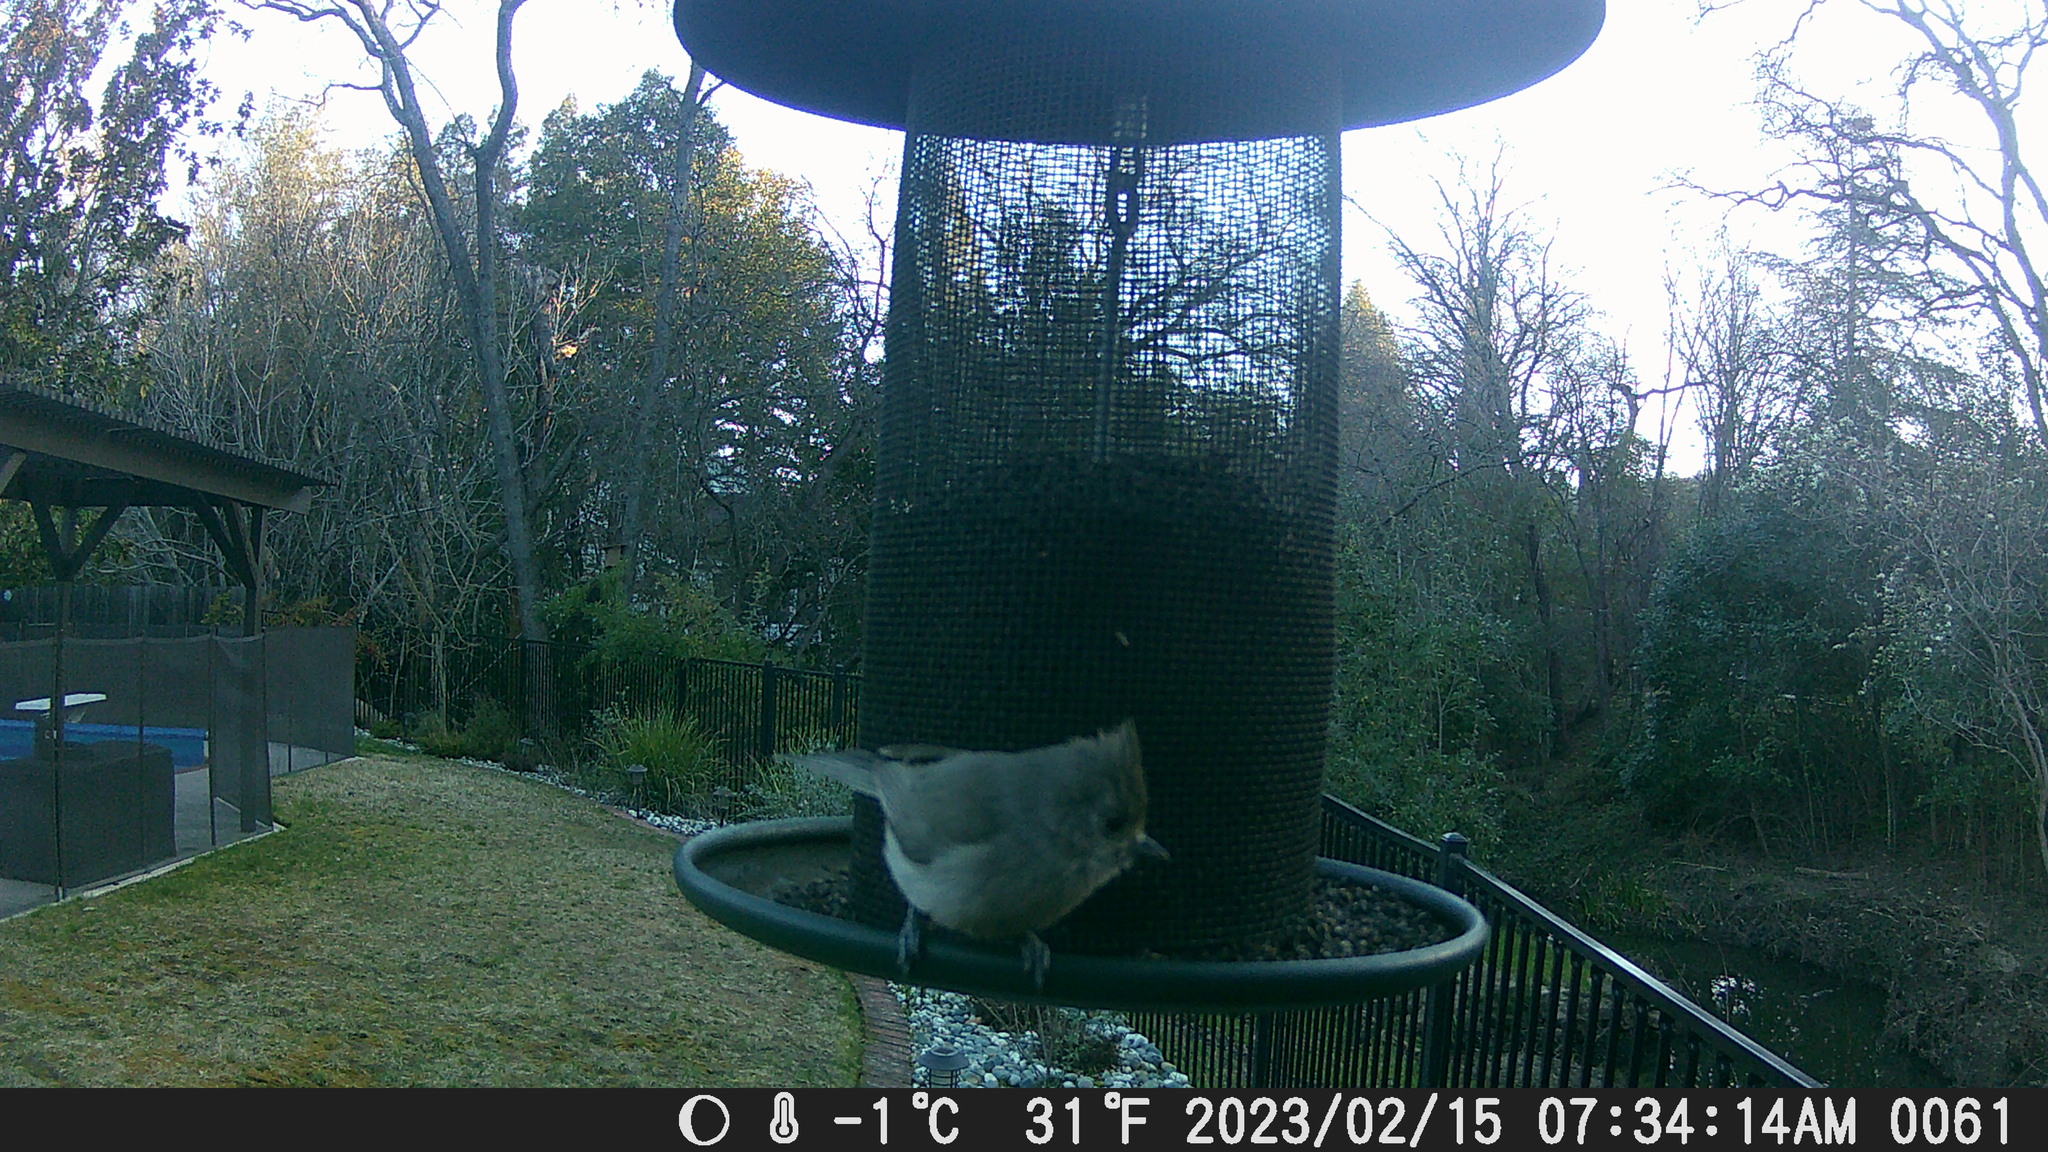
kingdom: Animalia
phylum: Chordata
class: Aves
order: Passeriformes
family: Paridae
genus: Baeolophus
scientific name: Baeolophus inornatus
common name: Oak titmouse
